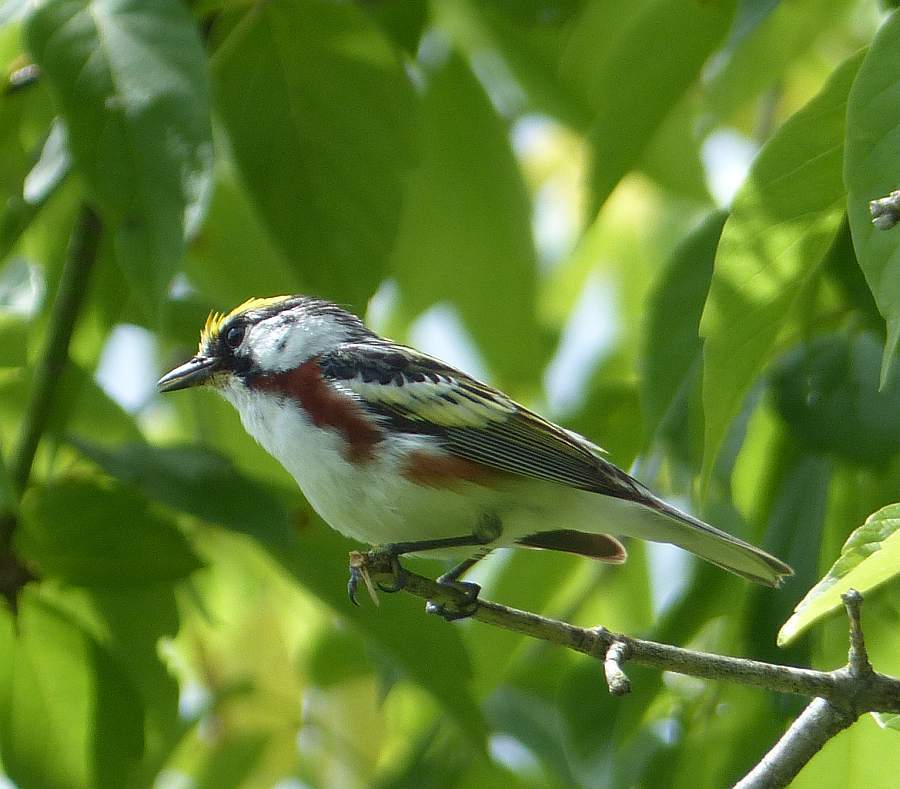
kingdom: Animalia
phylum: Chordata
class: Aves
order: Passeriformes
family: Parulidae
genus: Setophaga
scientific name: Setophaga pensylvanica
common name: Chestnut-sided warbler
